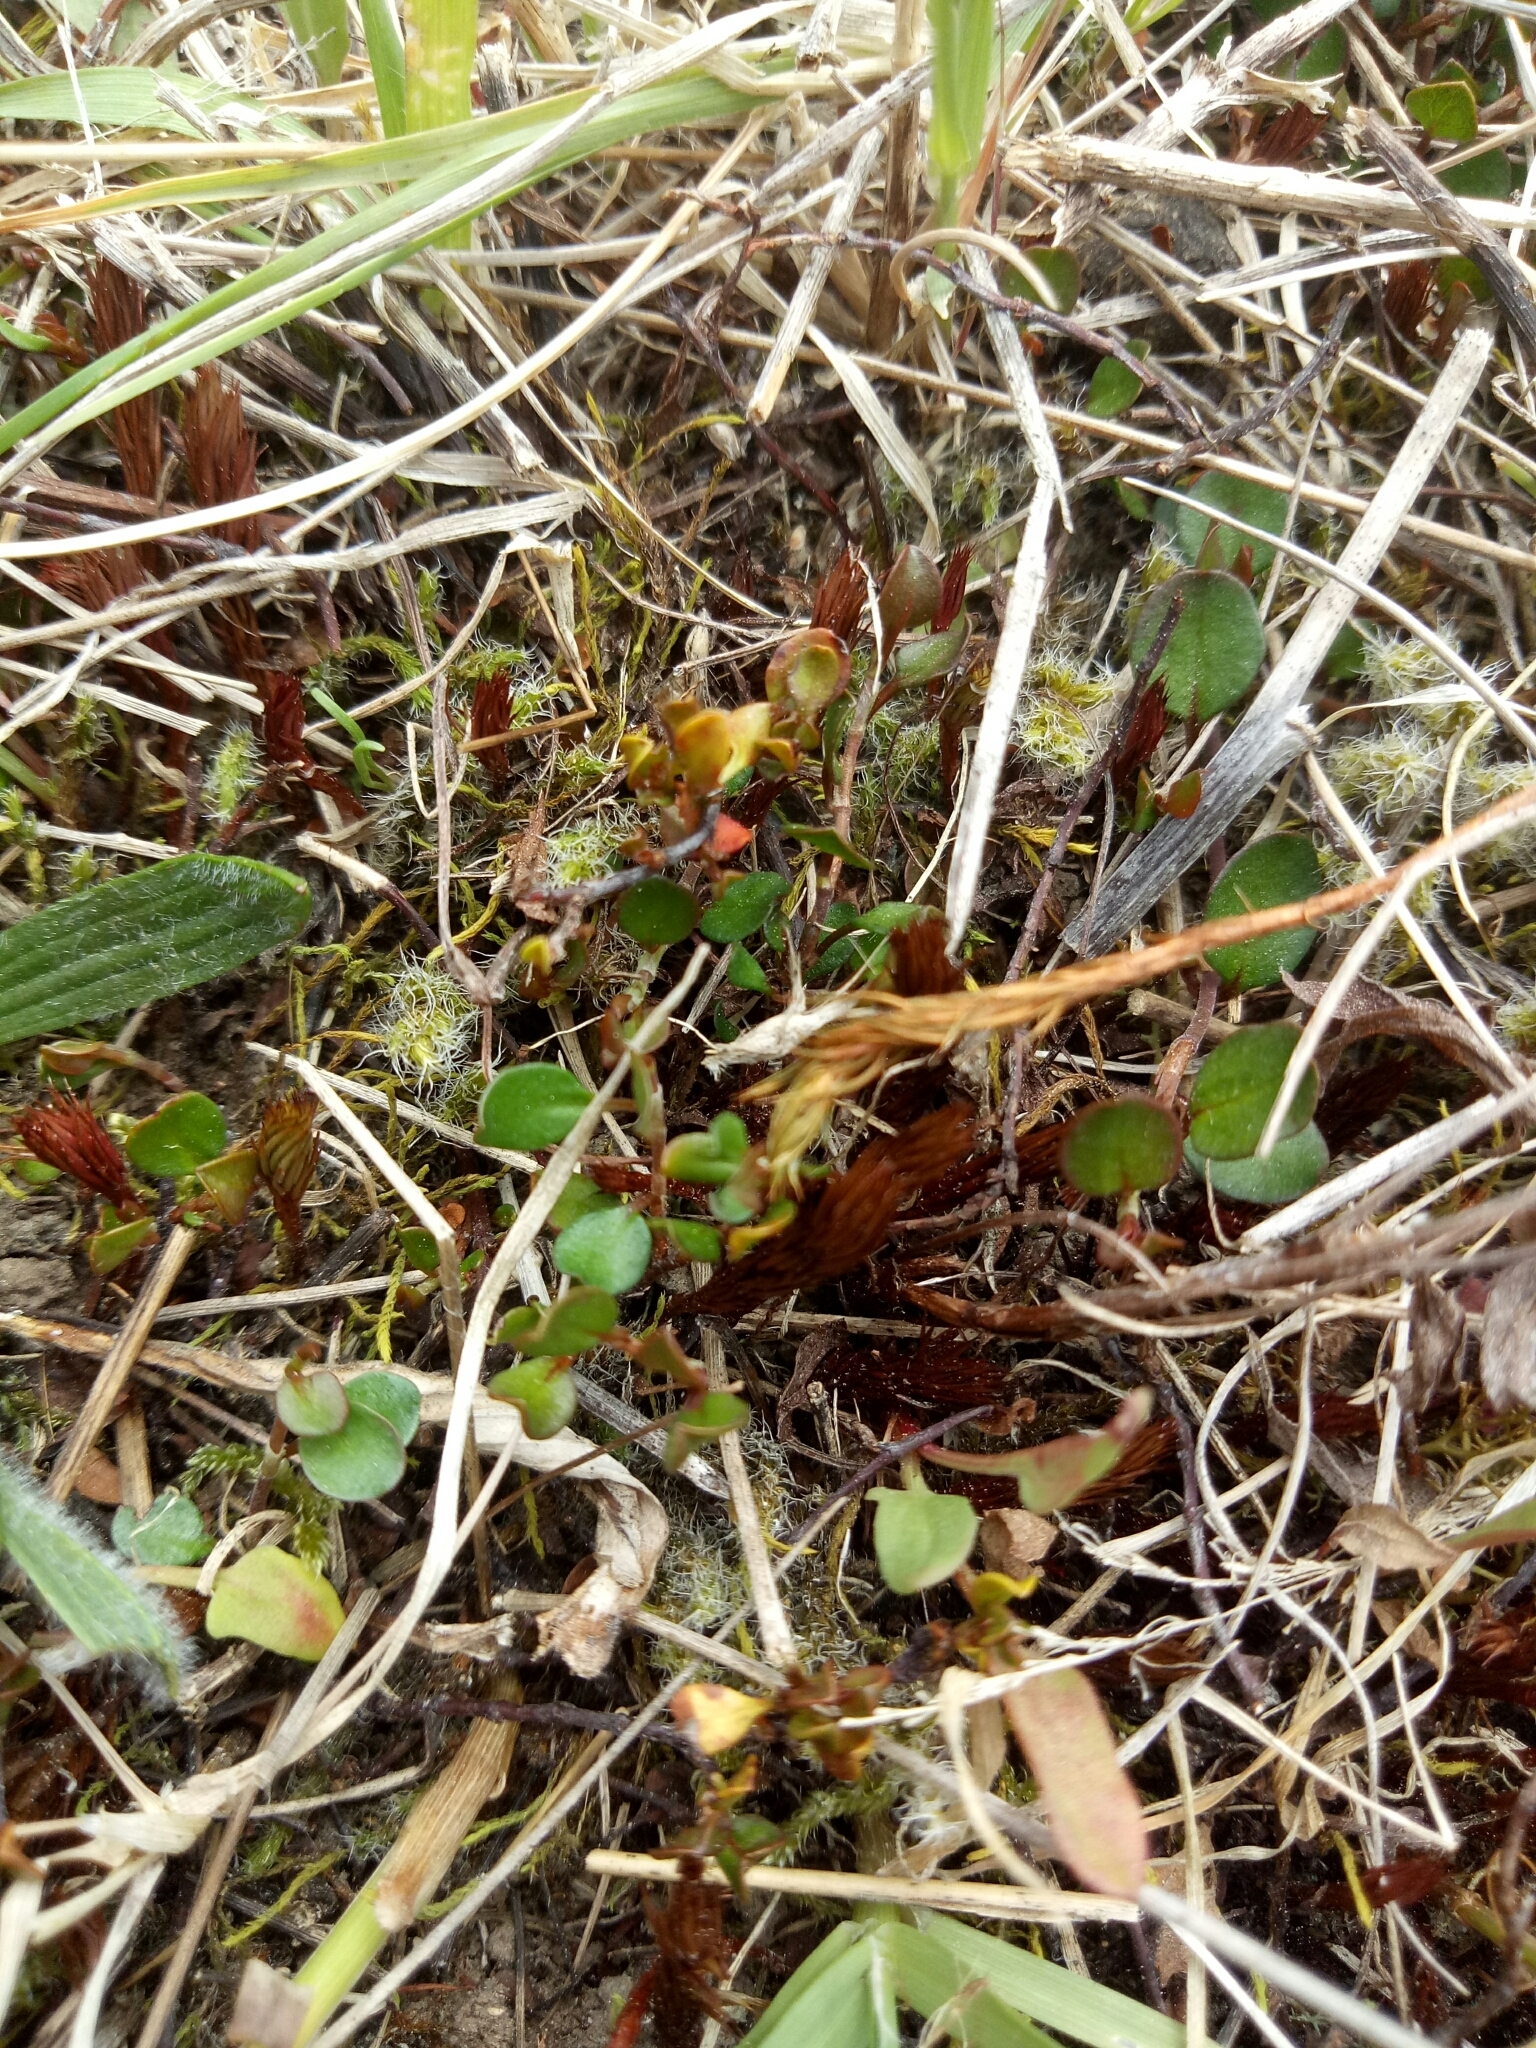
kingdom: Plantae
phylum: Tracheophyta
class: Magnoliopsida
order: Caryophyllales
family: Polygonaceae
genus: Muehlenbeckia
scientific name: Muehlenbeckia axillaris
